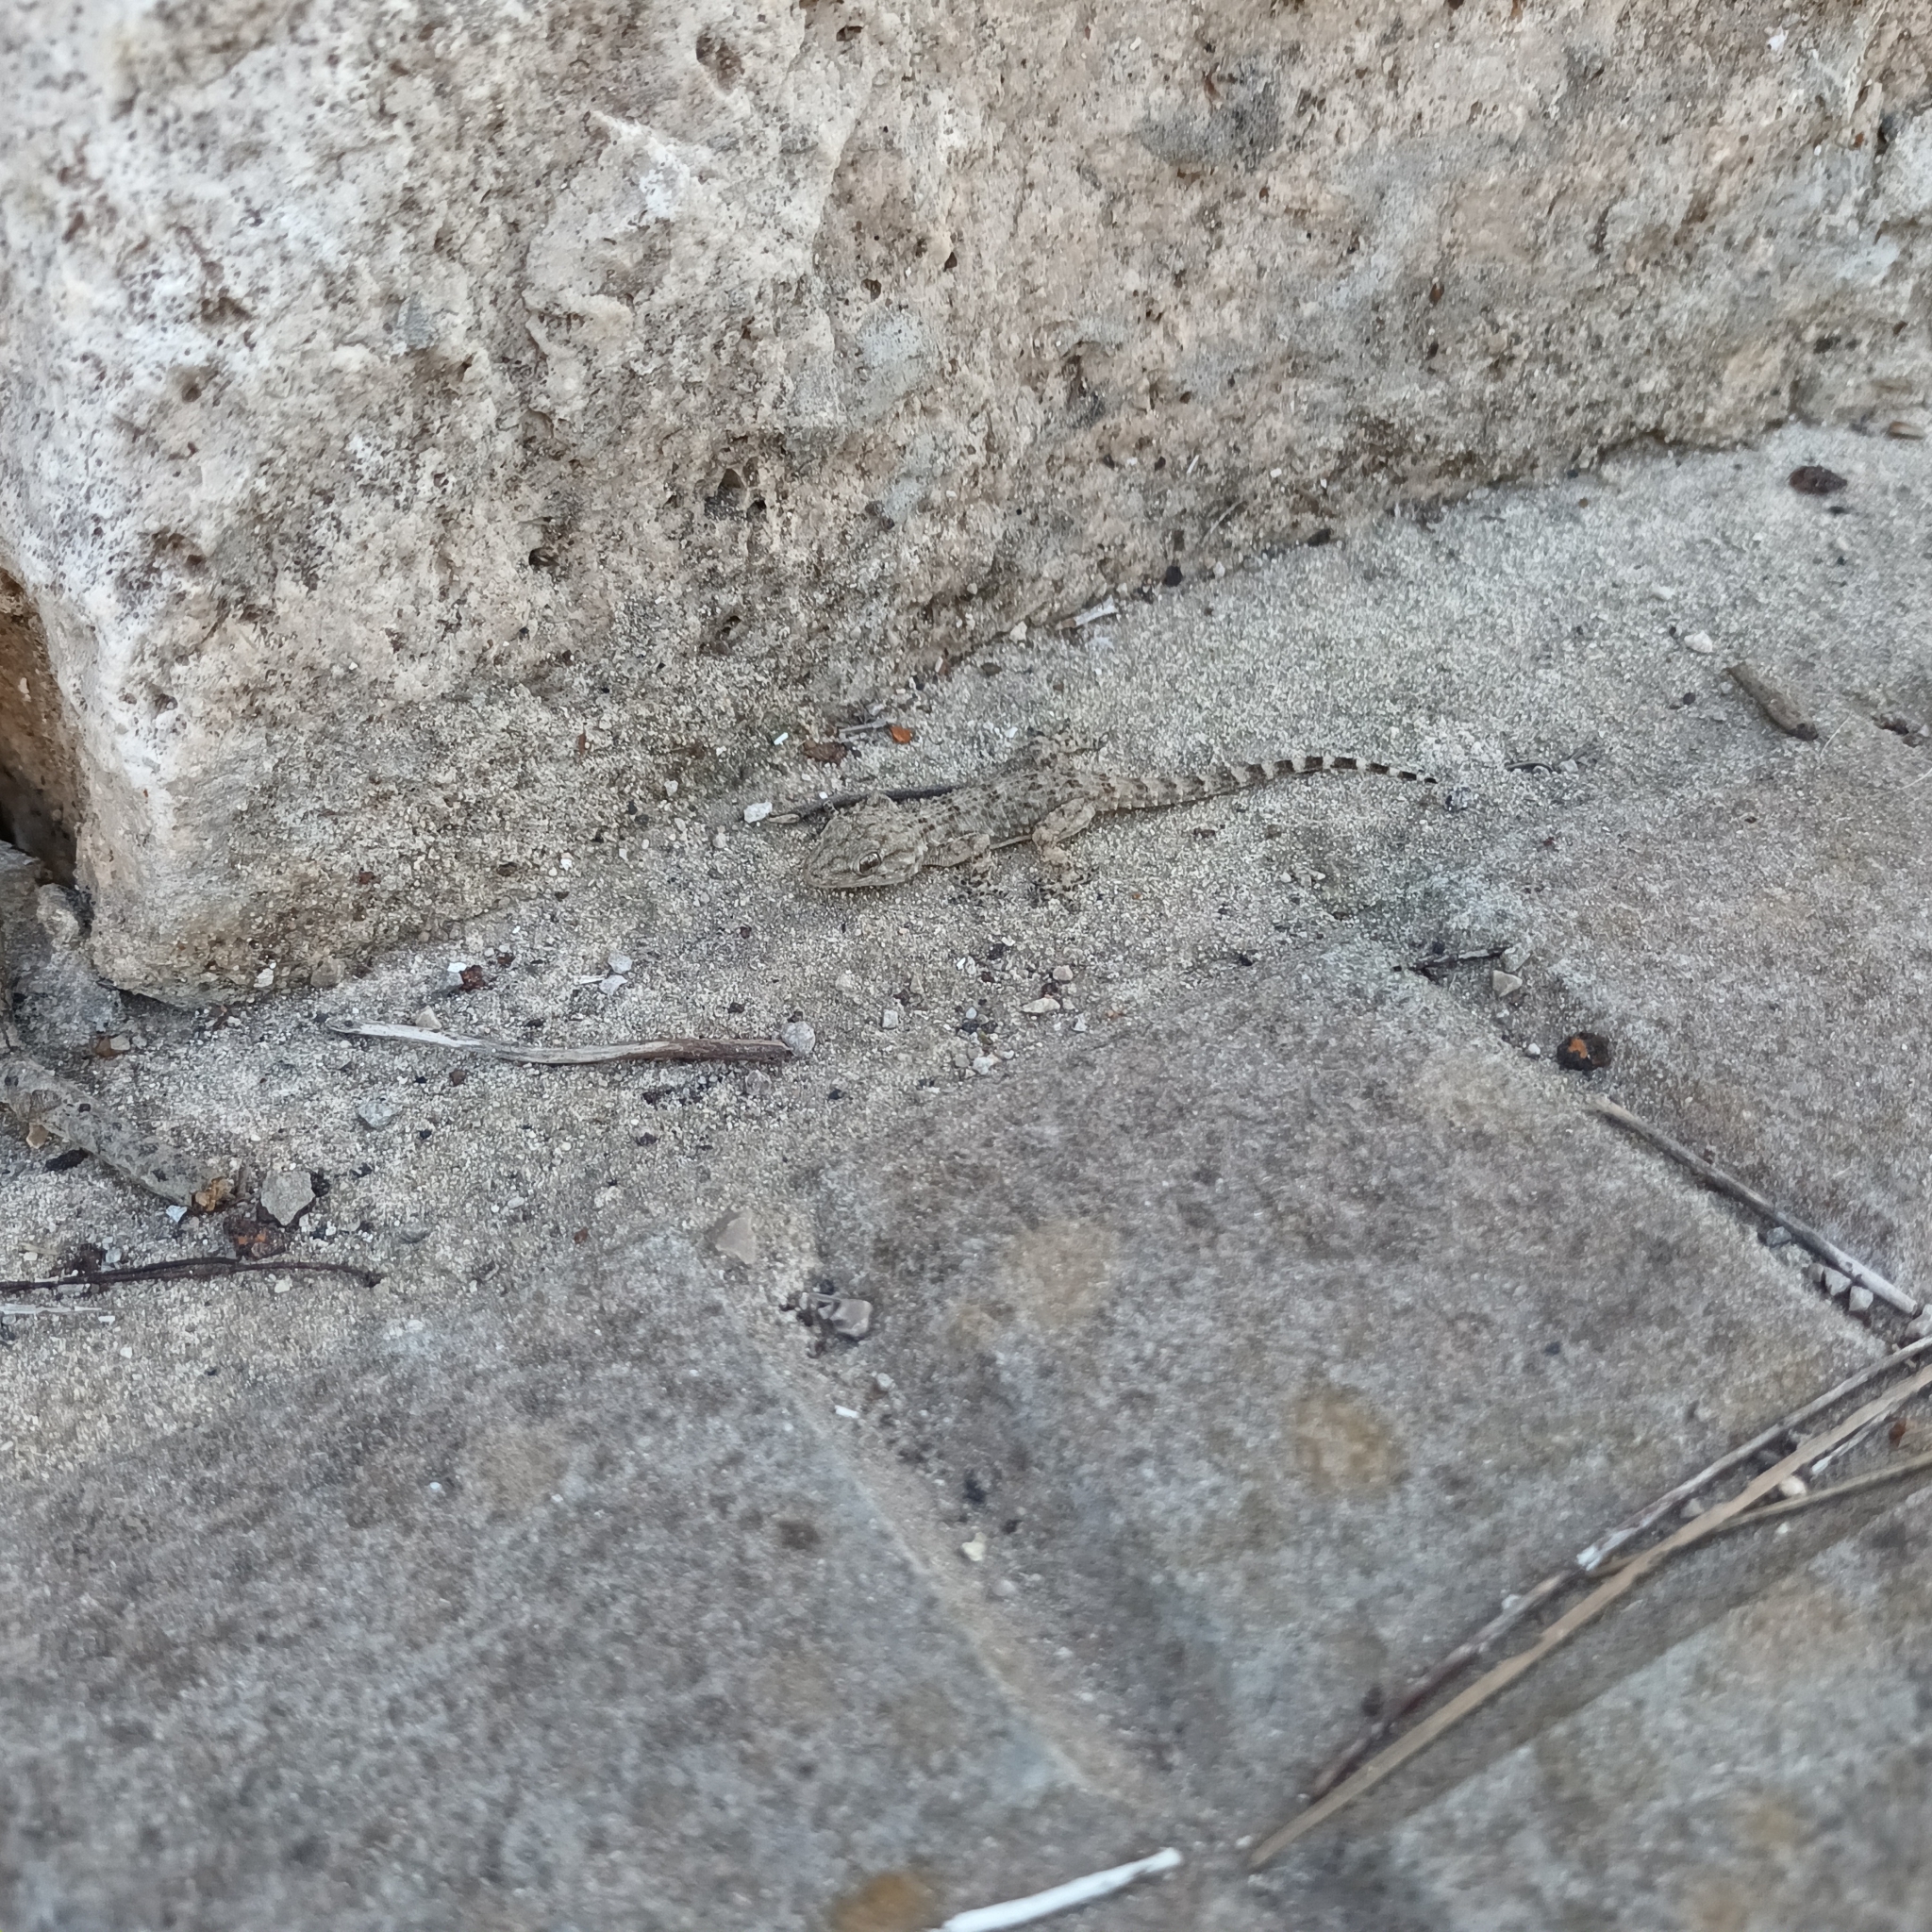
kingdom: Animalia
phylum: Chordata
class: Squamata
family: Phyllodactylidae
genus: Tarentola
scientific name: Tarentola mauritanica
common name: Moorish gecko
